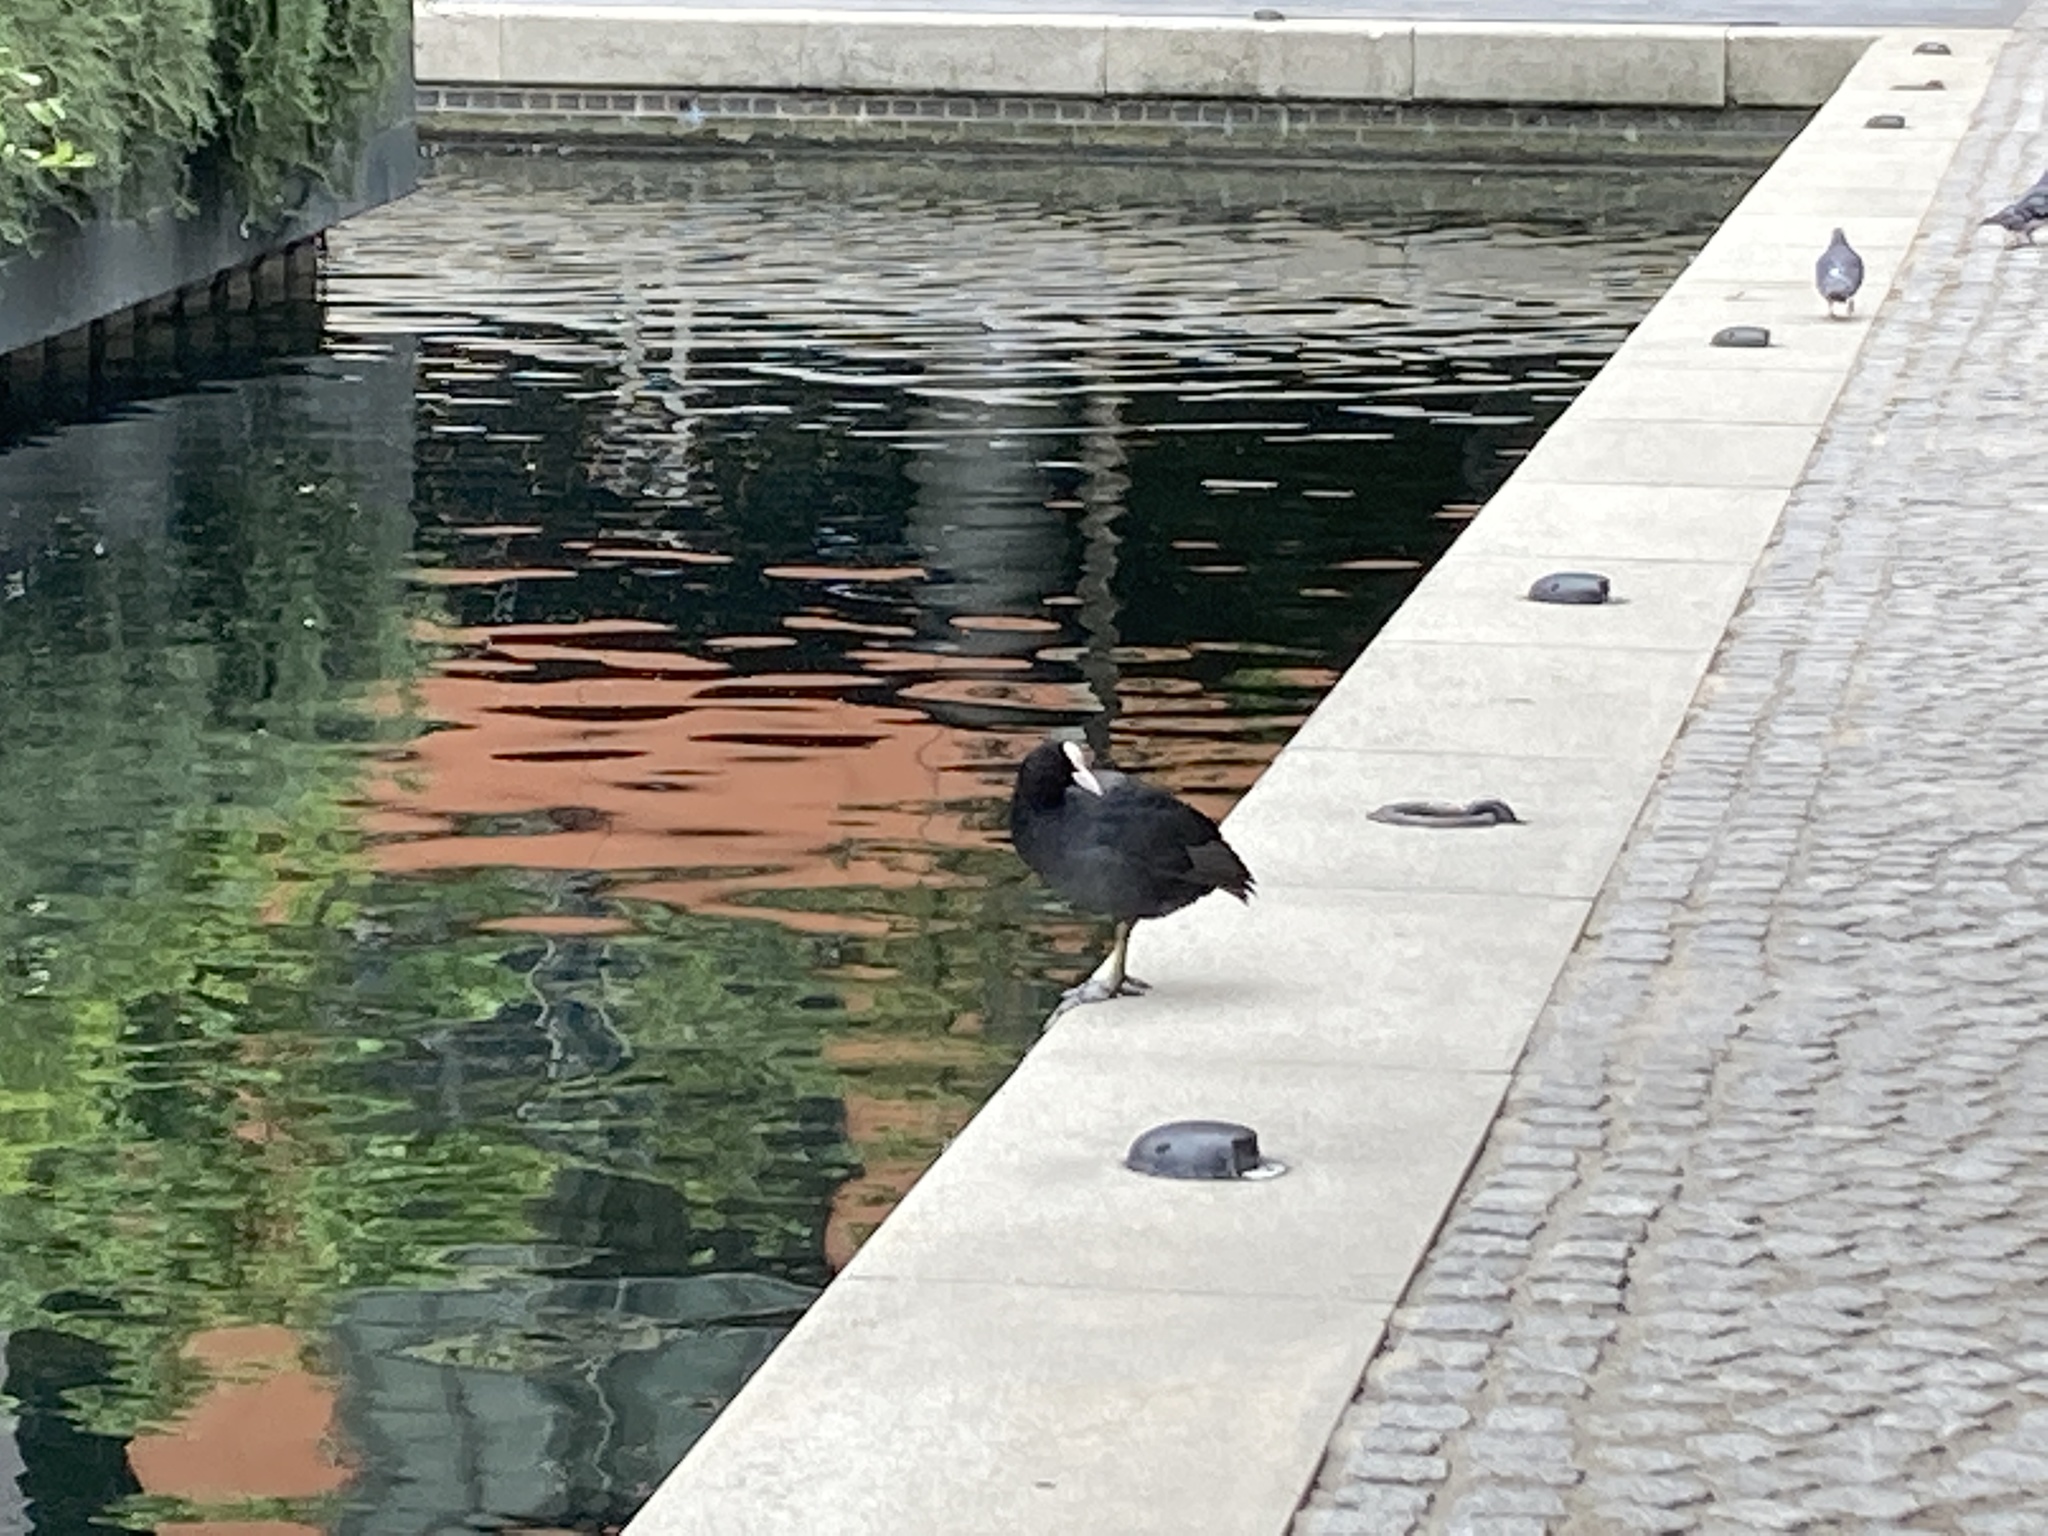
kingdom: Animalia
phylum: Chordata
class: Aves
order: Gruiformes
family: Rallidae
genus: Fulica
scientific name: Fulica atra
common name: Eurasian coot
